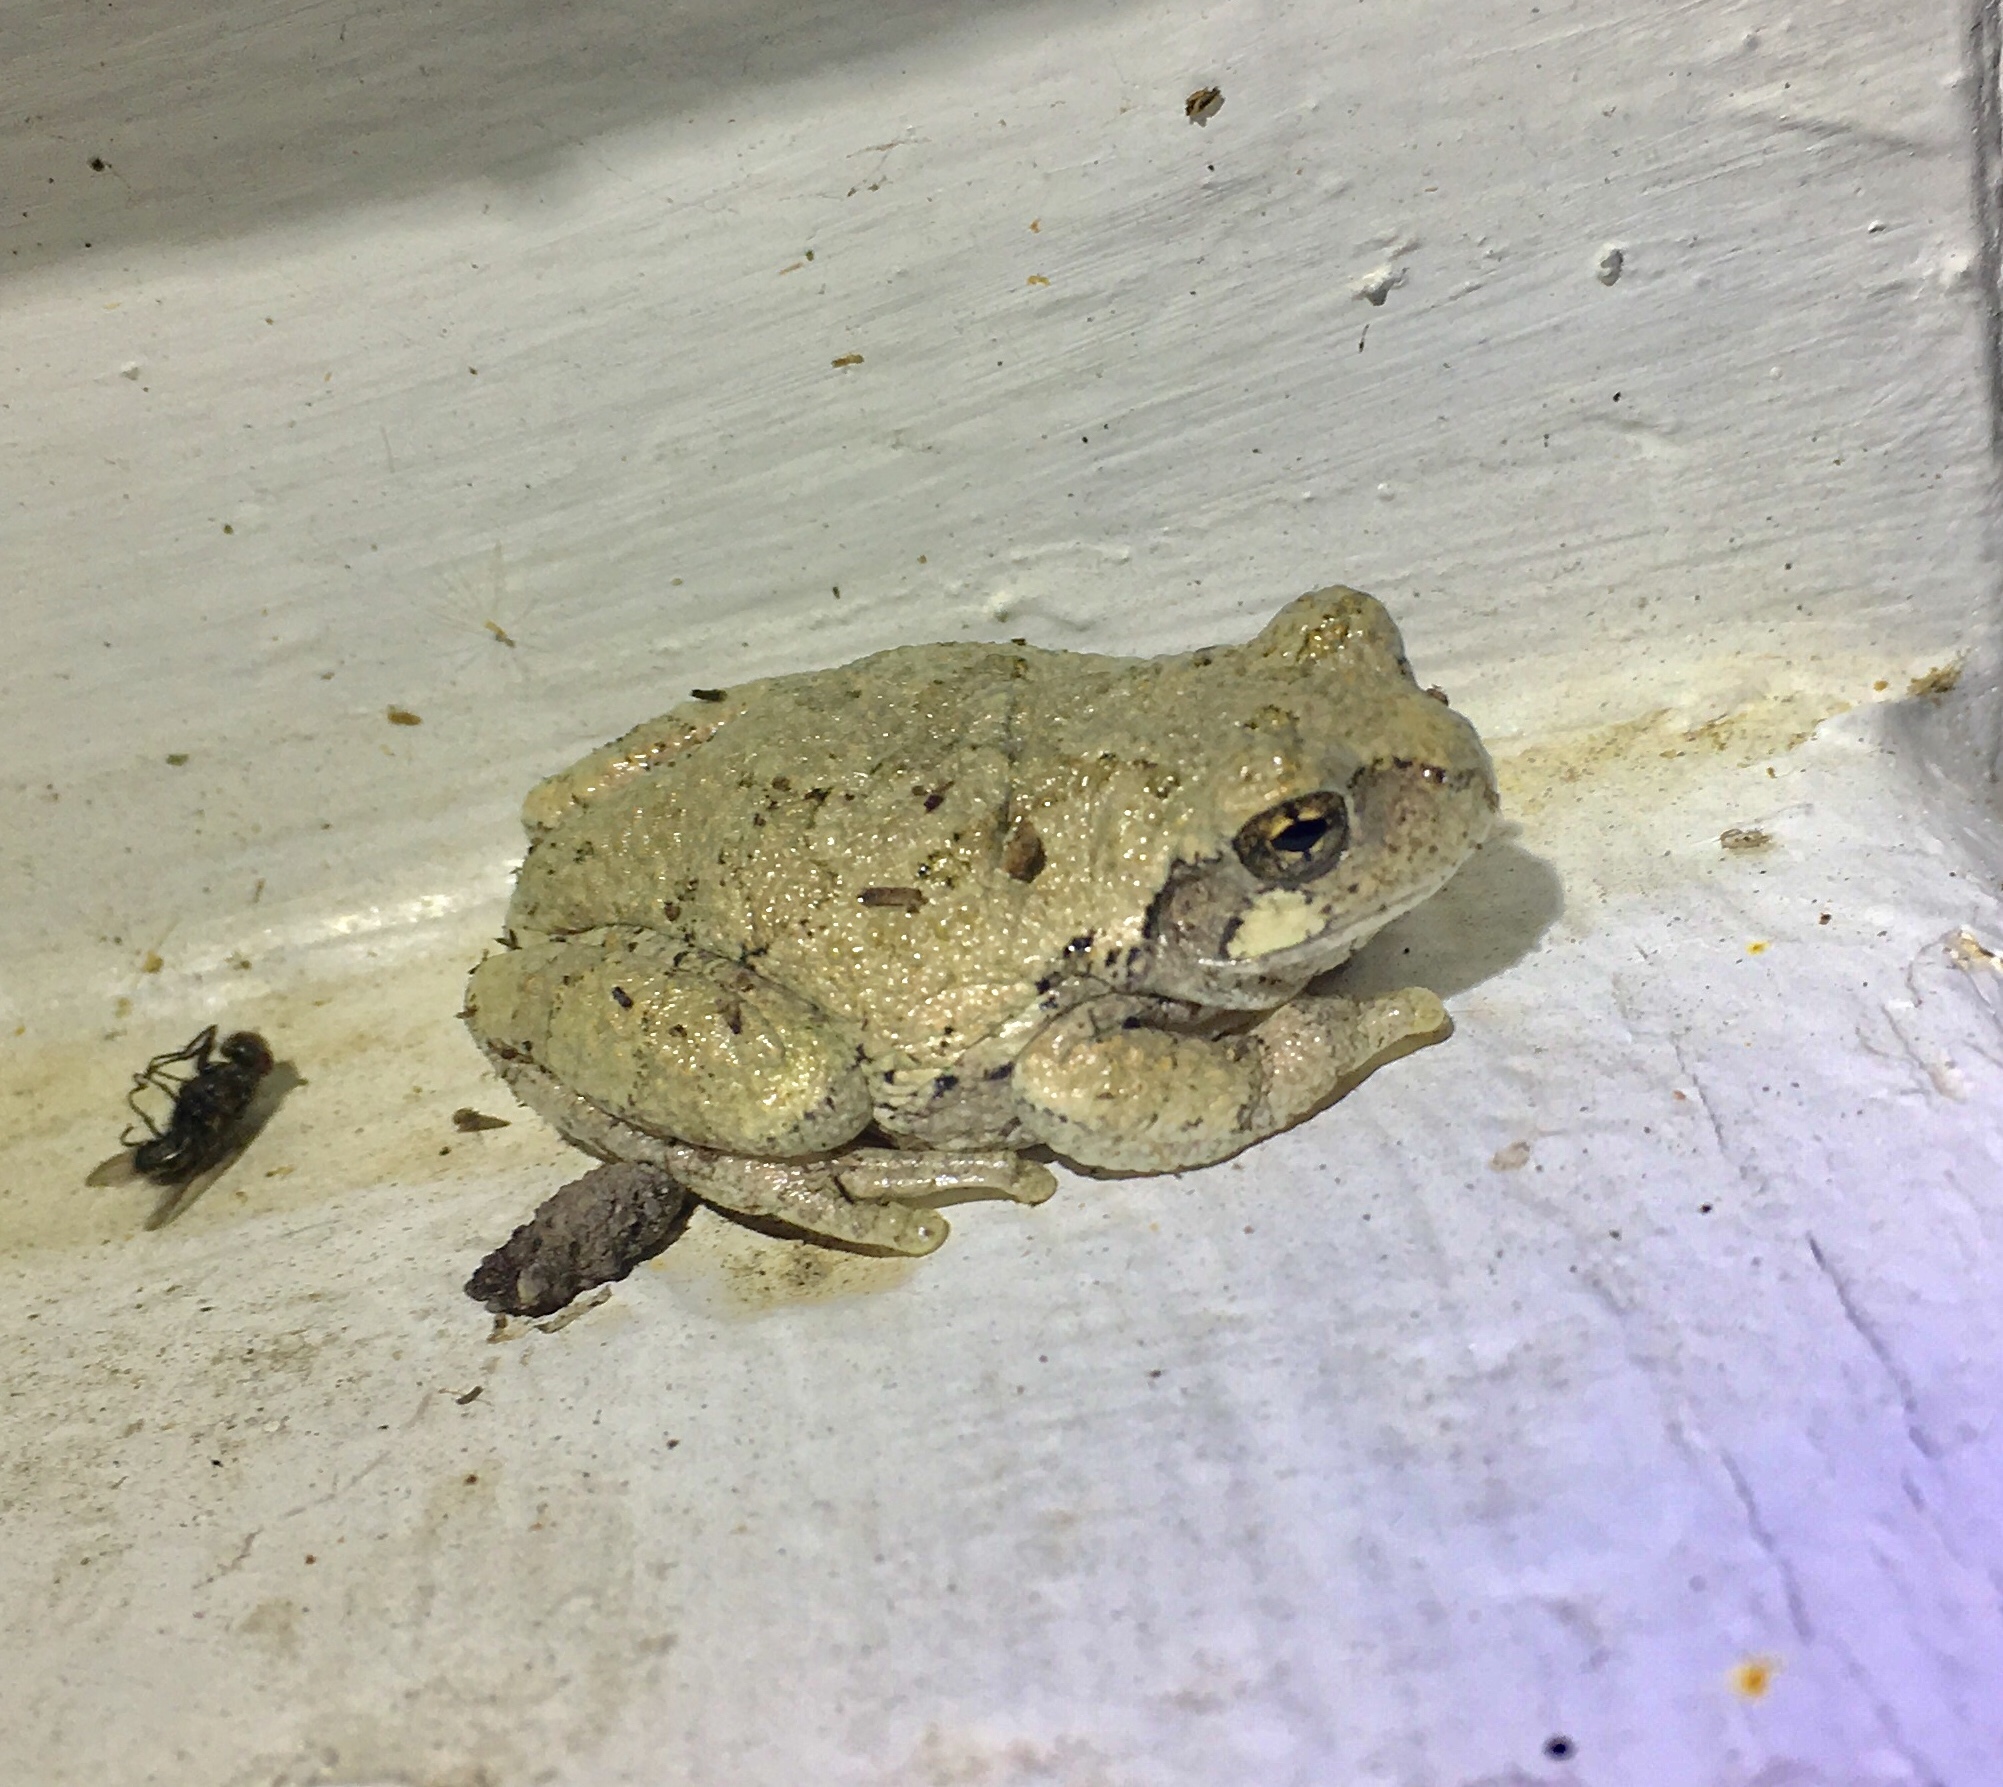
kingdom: Animalia
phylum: Chordata
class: Amphibia
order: Anura
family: Hylidae
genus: Hyla
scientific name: Hyla
